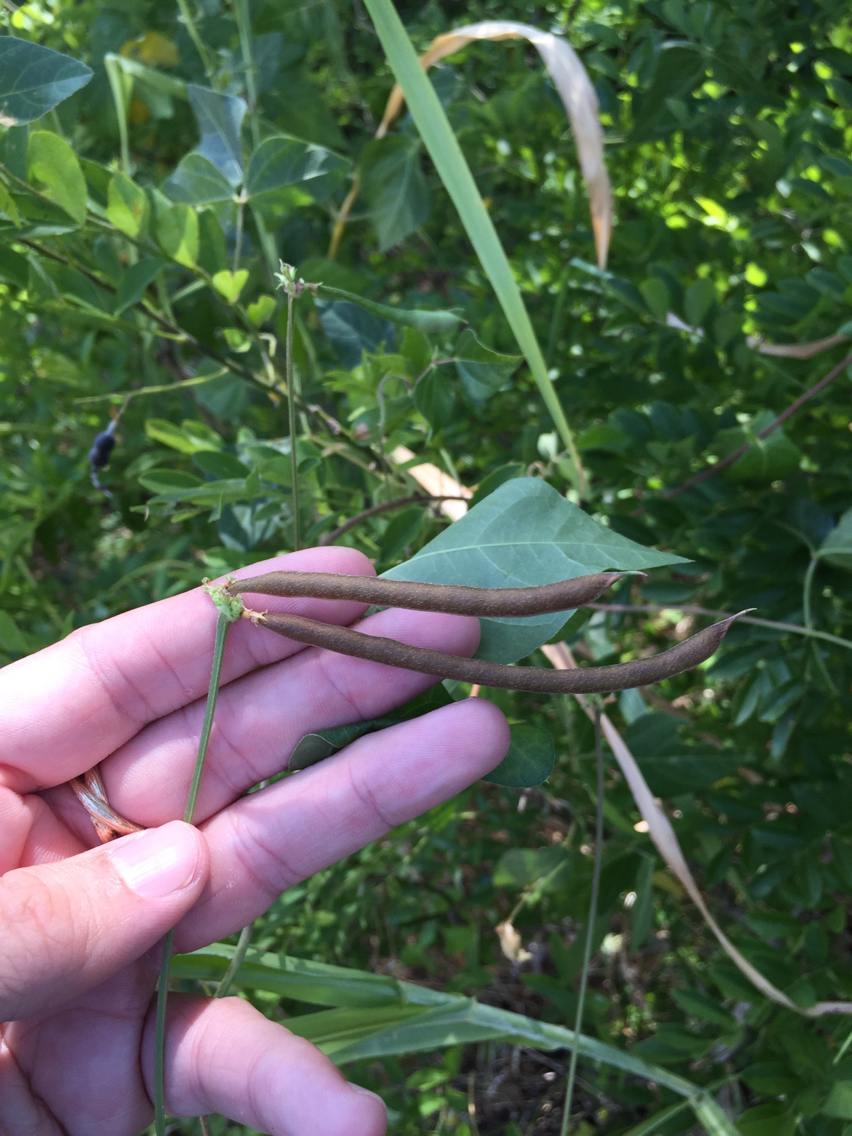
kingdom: Plantae
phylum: Tracheophyta
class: Magnoliopsida
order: Fabales
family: Fabaceae
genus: Strophostyles
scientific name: Strophostyles helvola
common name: Trailing wild bean
